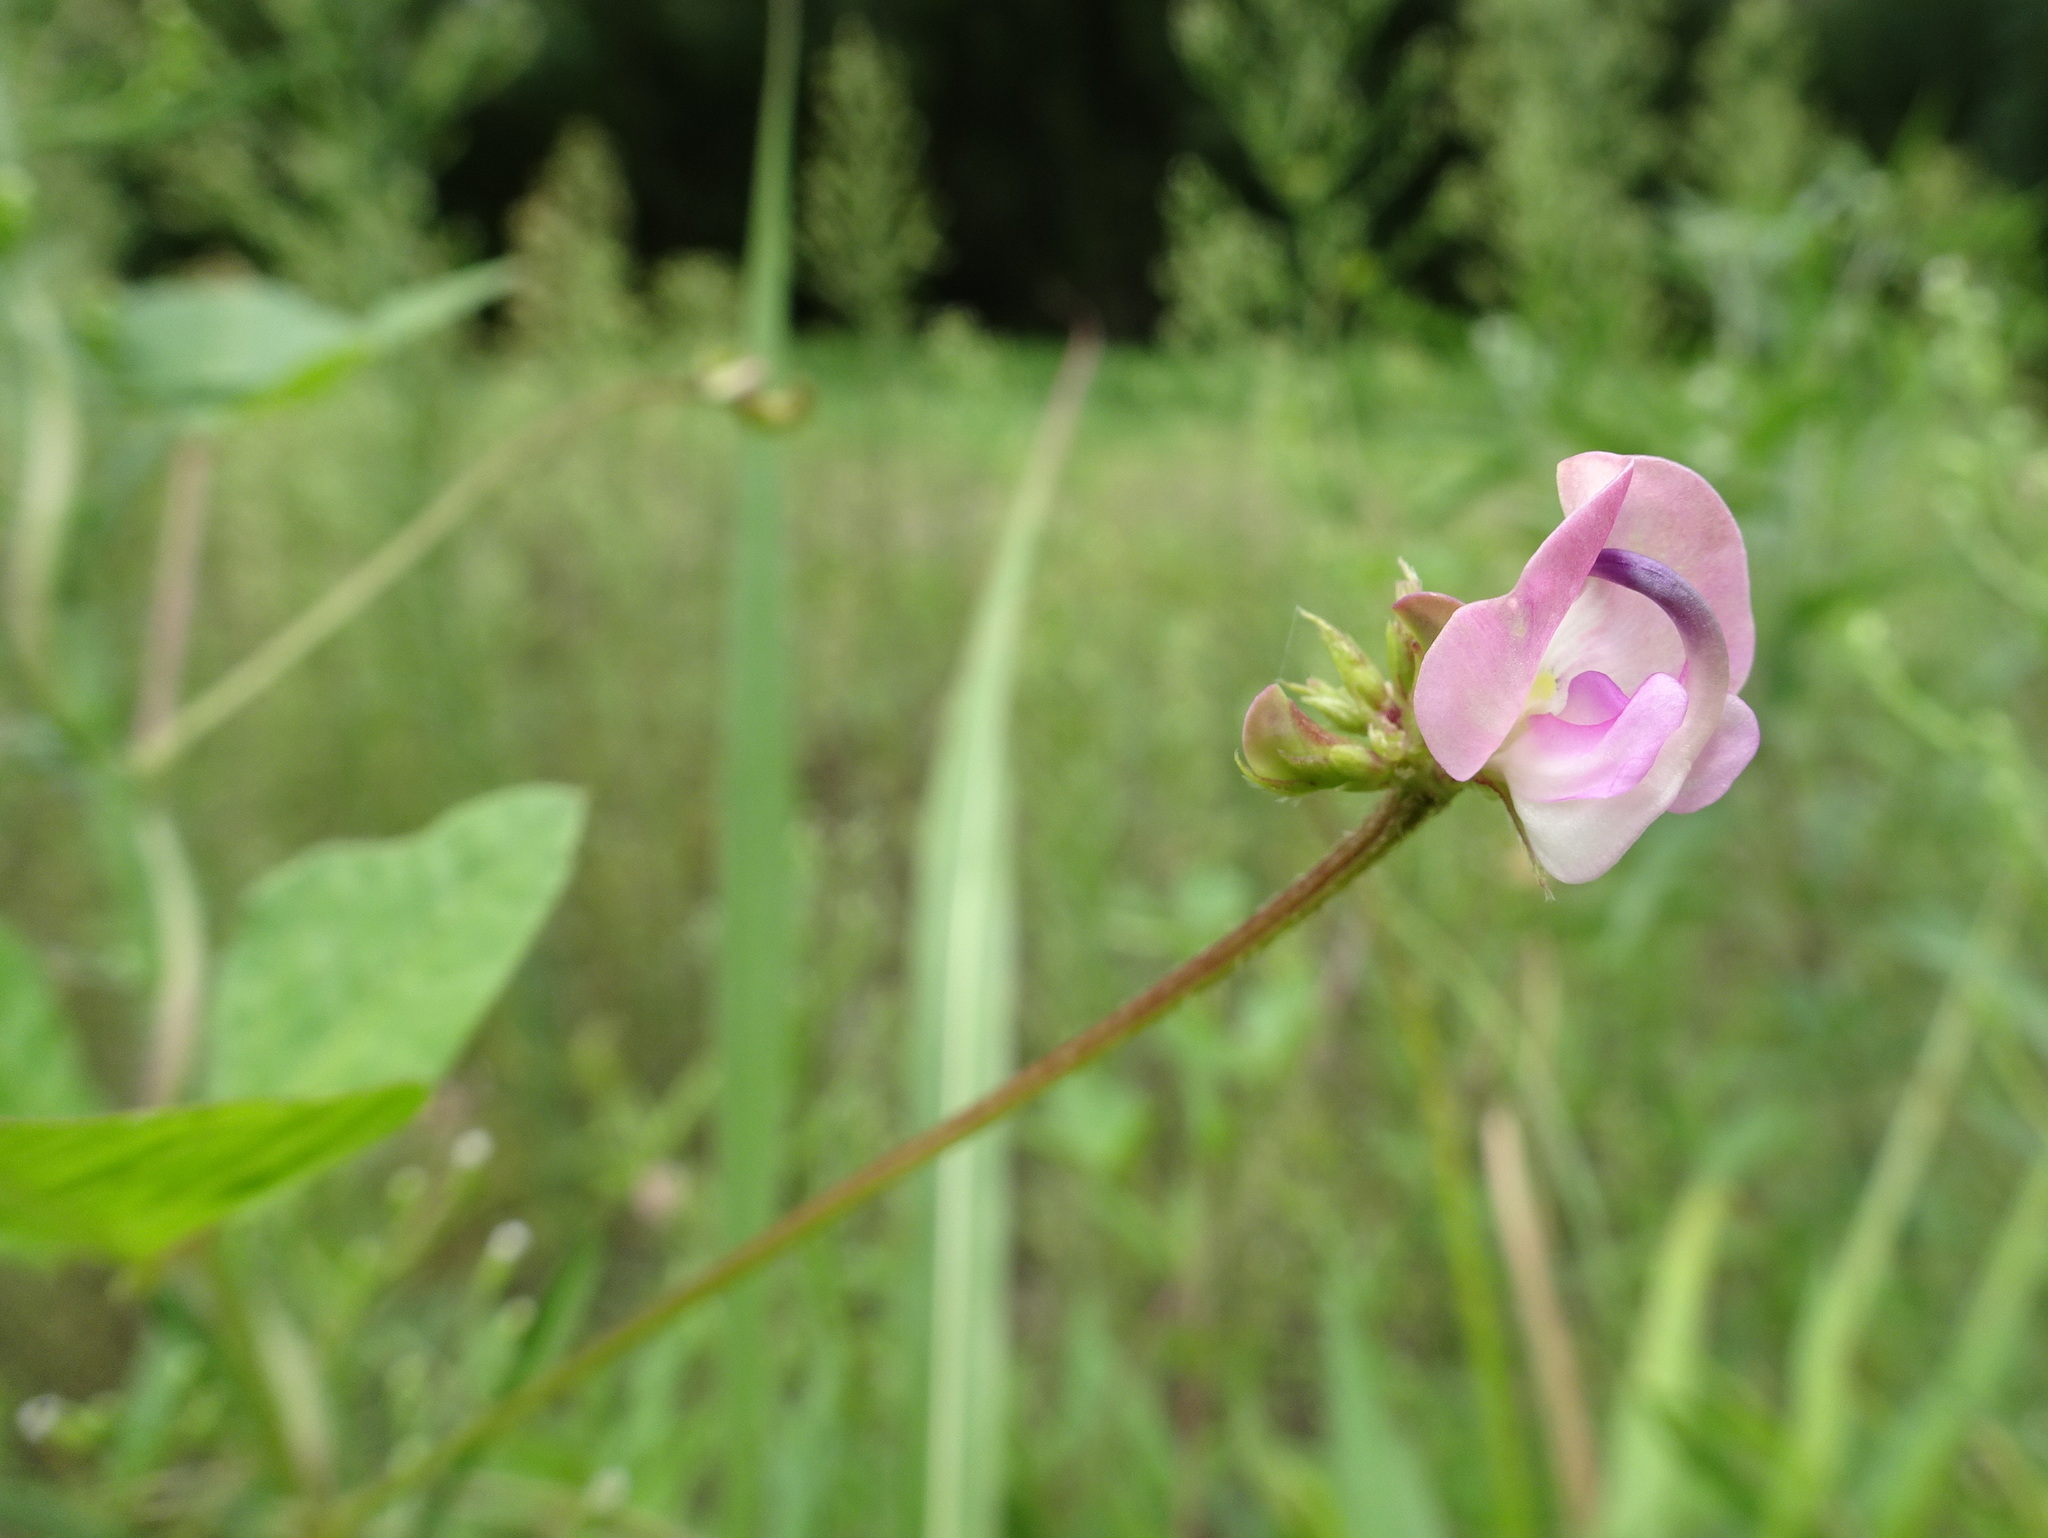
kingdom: Plantae
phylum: Tracheophyta
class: Magnoliopsida
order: Fabales
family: Fabaceae
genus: Strophostyles
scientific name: Strophostyles helvola
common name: Trailing wild bean
